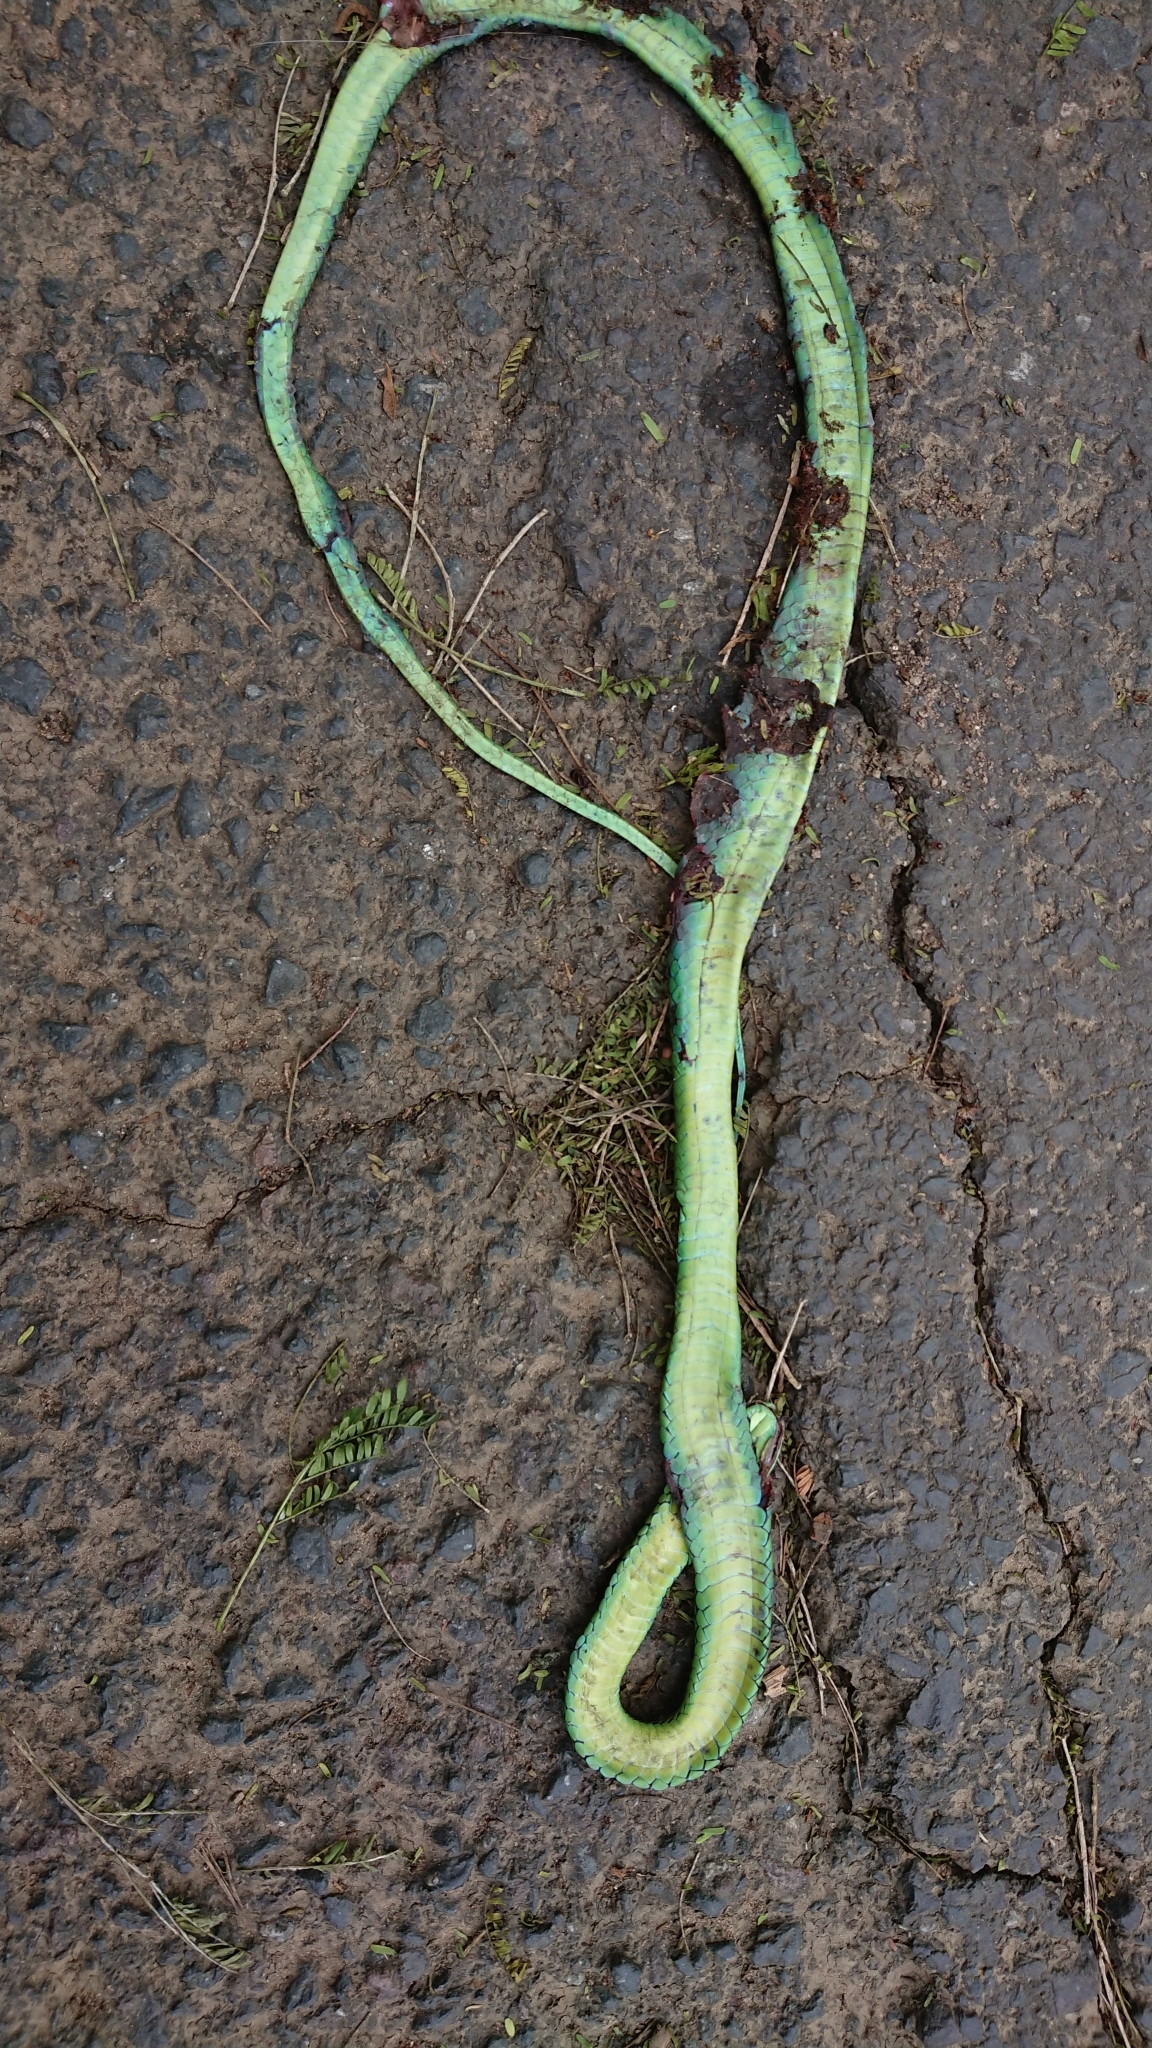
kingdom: Animalia
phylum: Chordata
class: Squamata
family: Colubridae
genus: Philothamnus
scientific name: Philothamnus natalensis
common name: Eastern natal green snake
